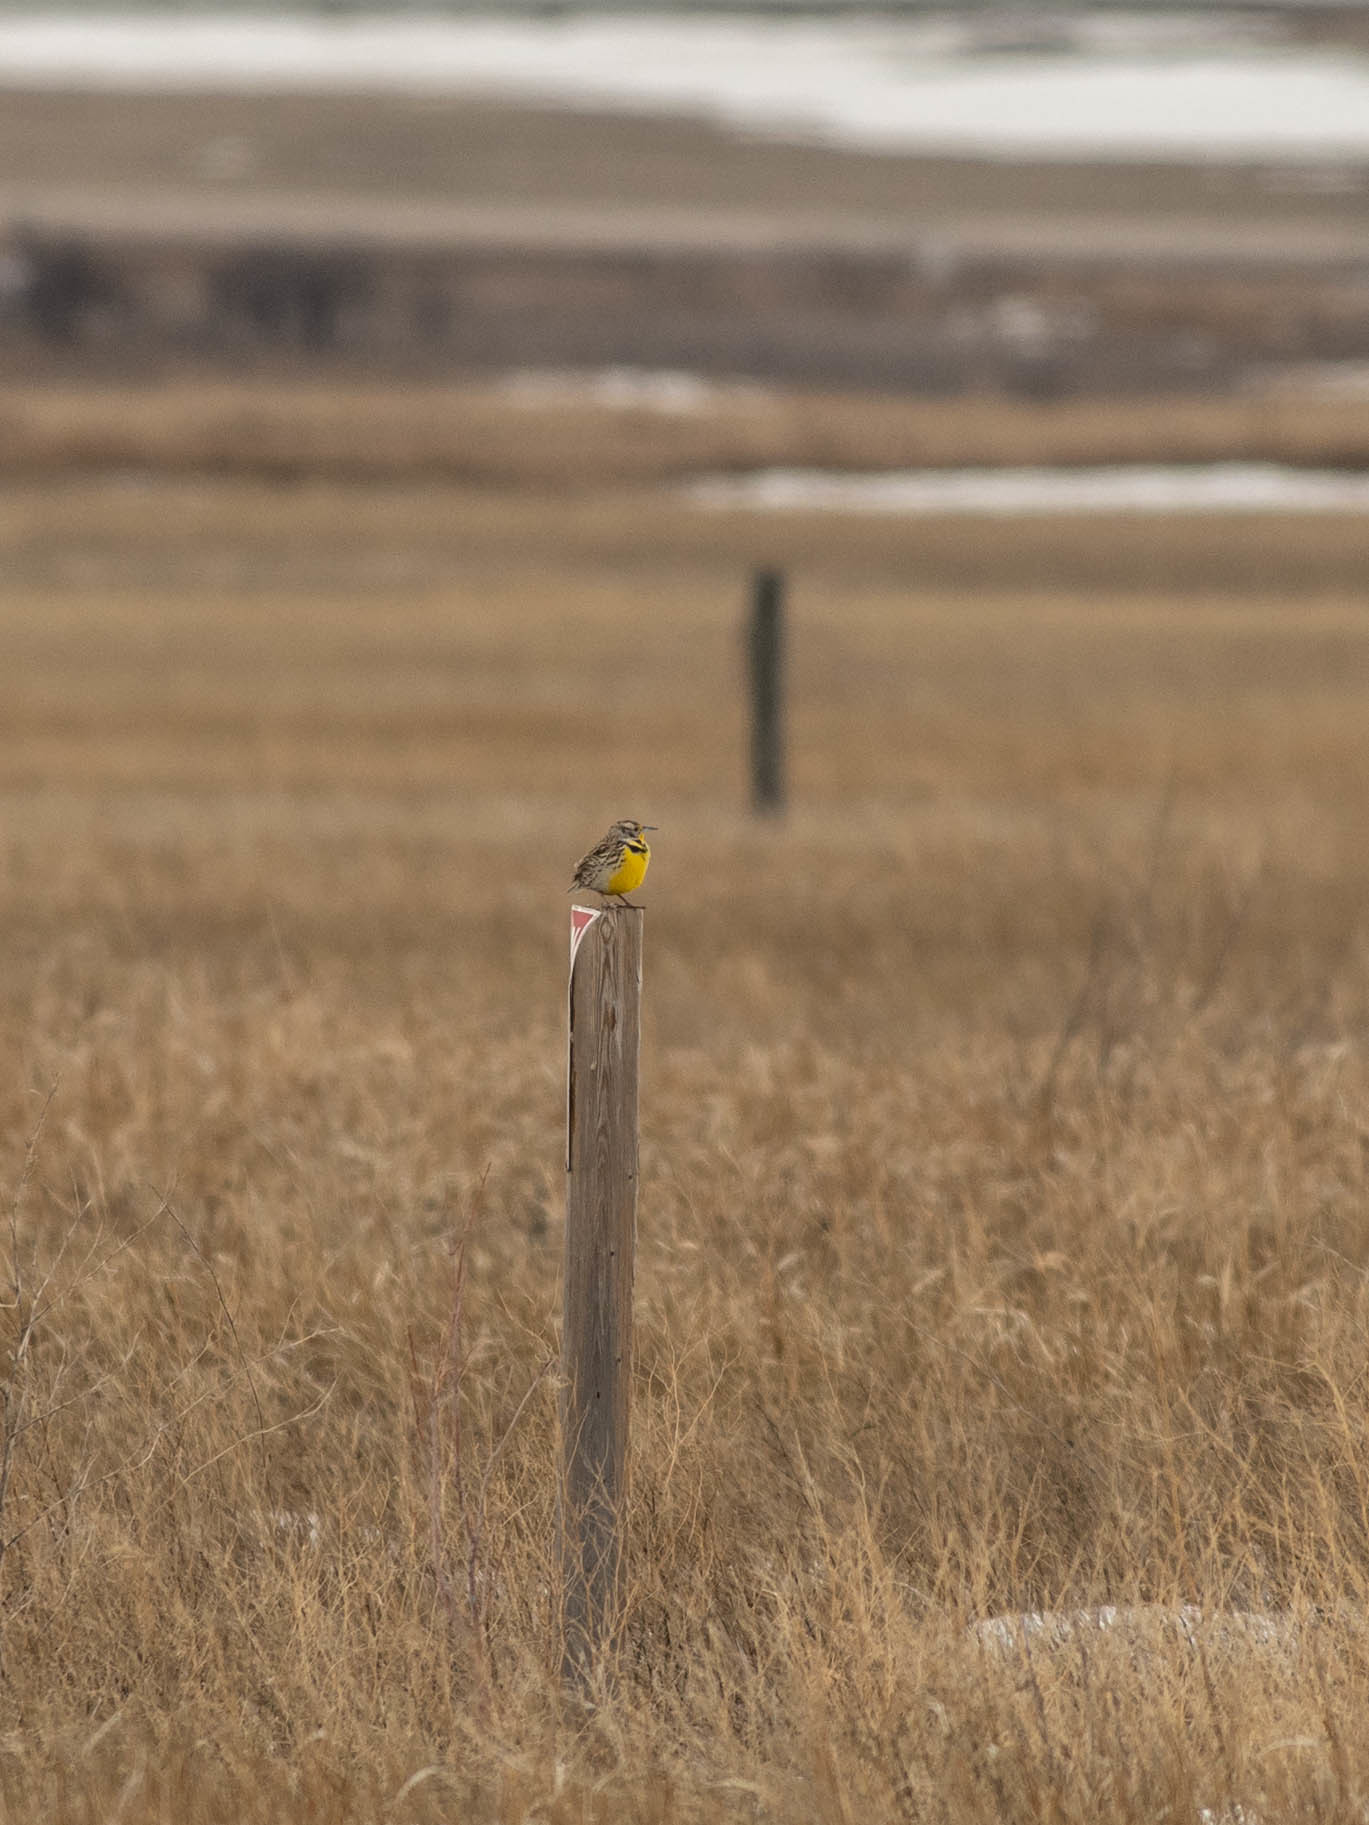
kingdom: Animalia
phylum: Chordata
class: Aves
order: Passeriformes
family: Icteridae
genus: Sturnella
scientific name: Sturnella neglecta
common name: Western meadowlark
